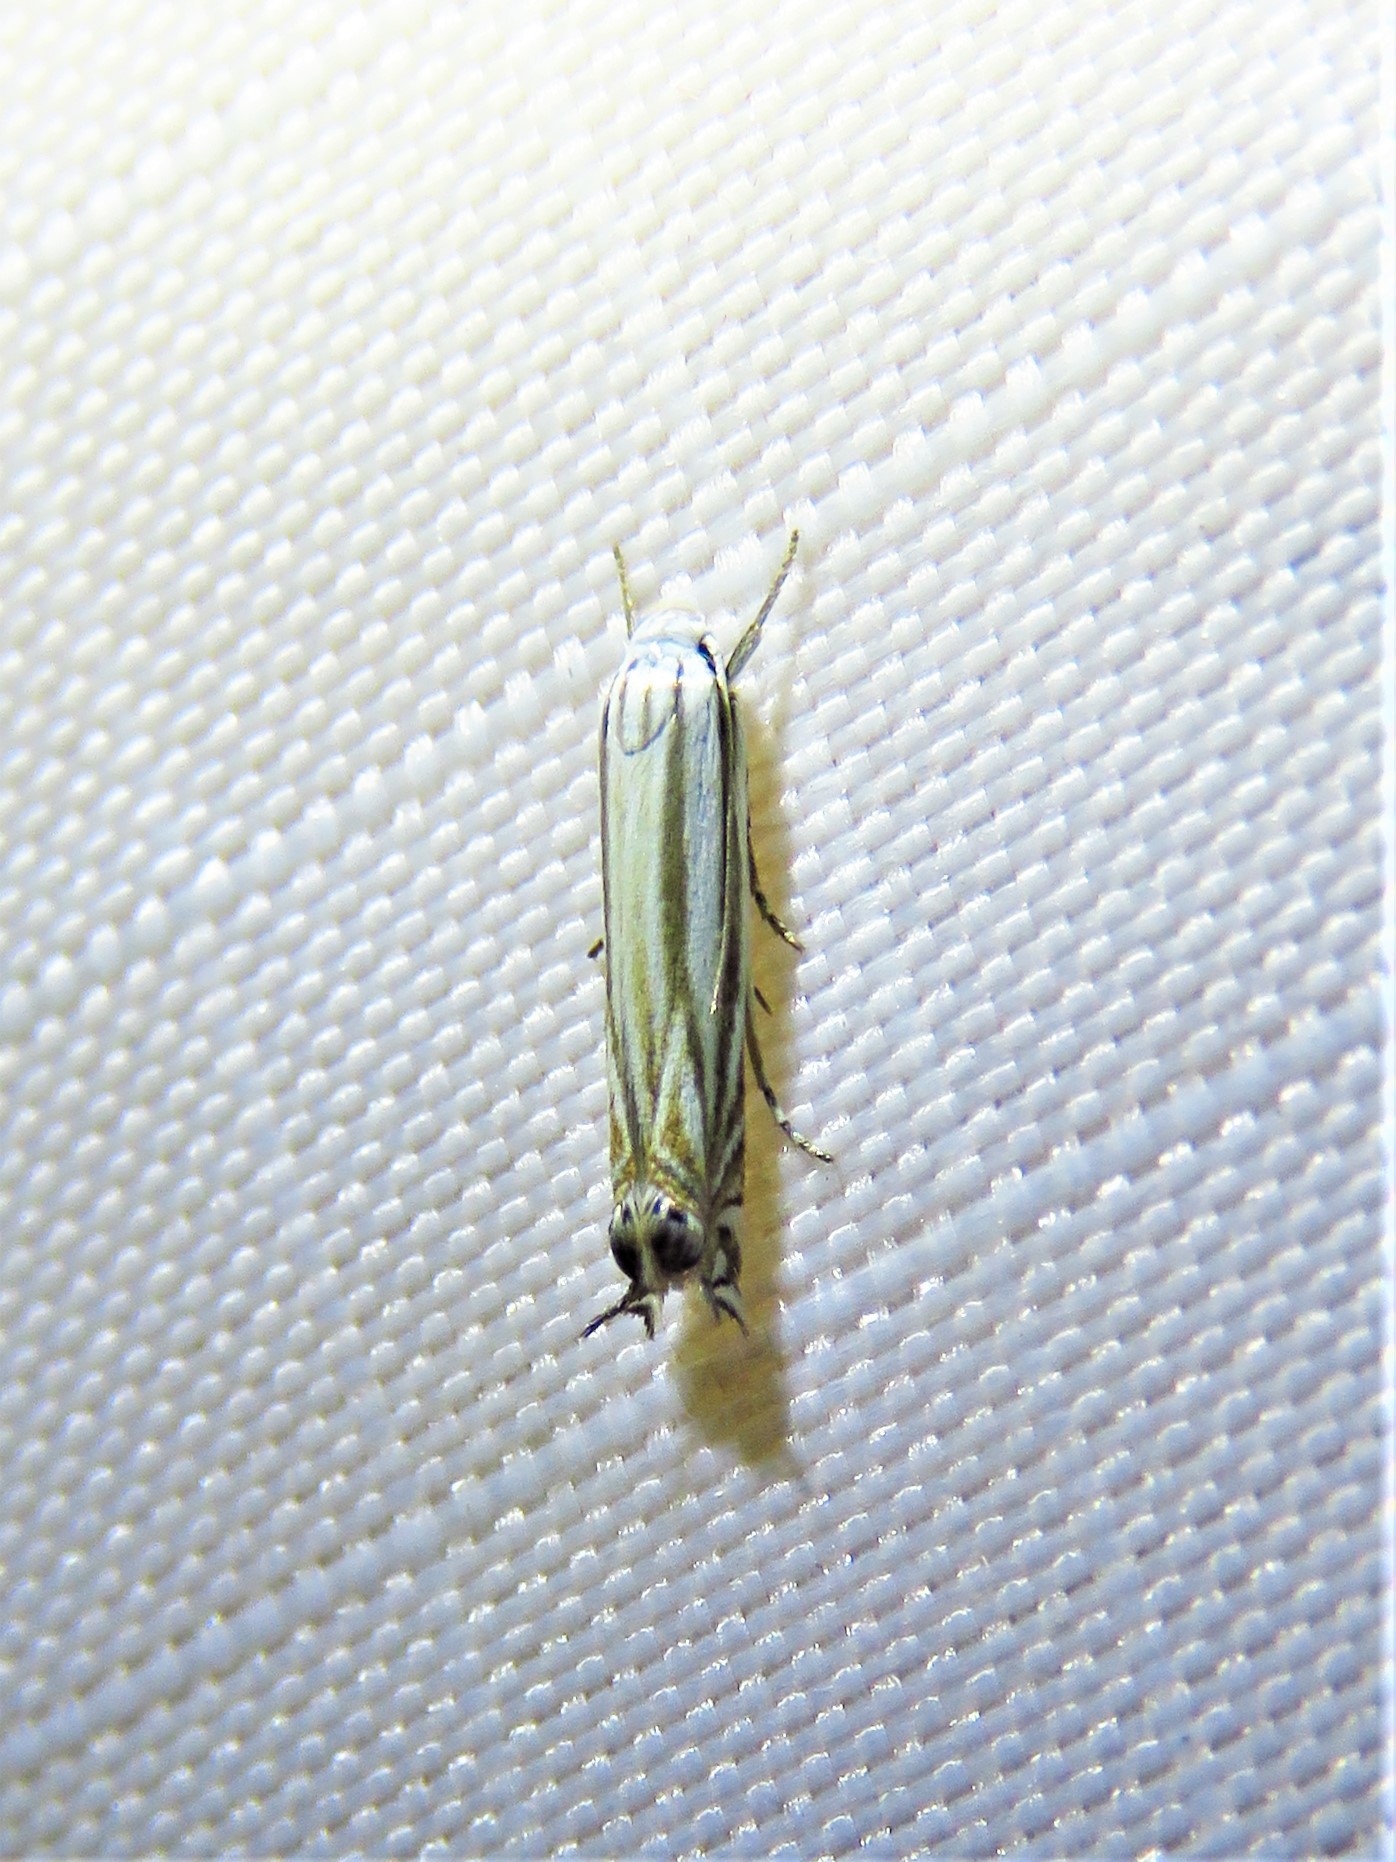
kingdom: Animalia
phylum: Arthropoda
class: Insecta
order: Lepidoptera
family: Gelechiidae
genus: Polyhymno
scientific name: Polyhymno luteostrigella
